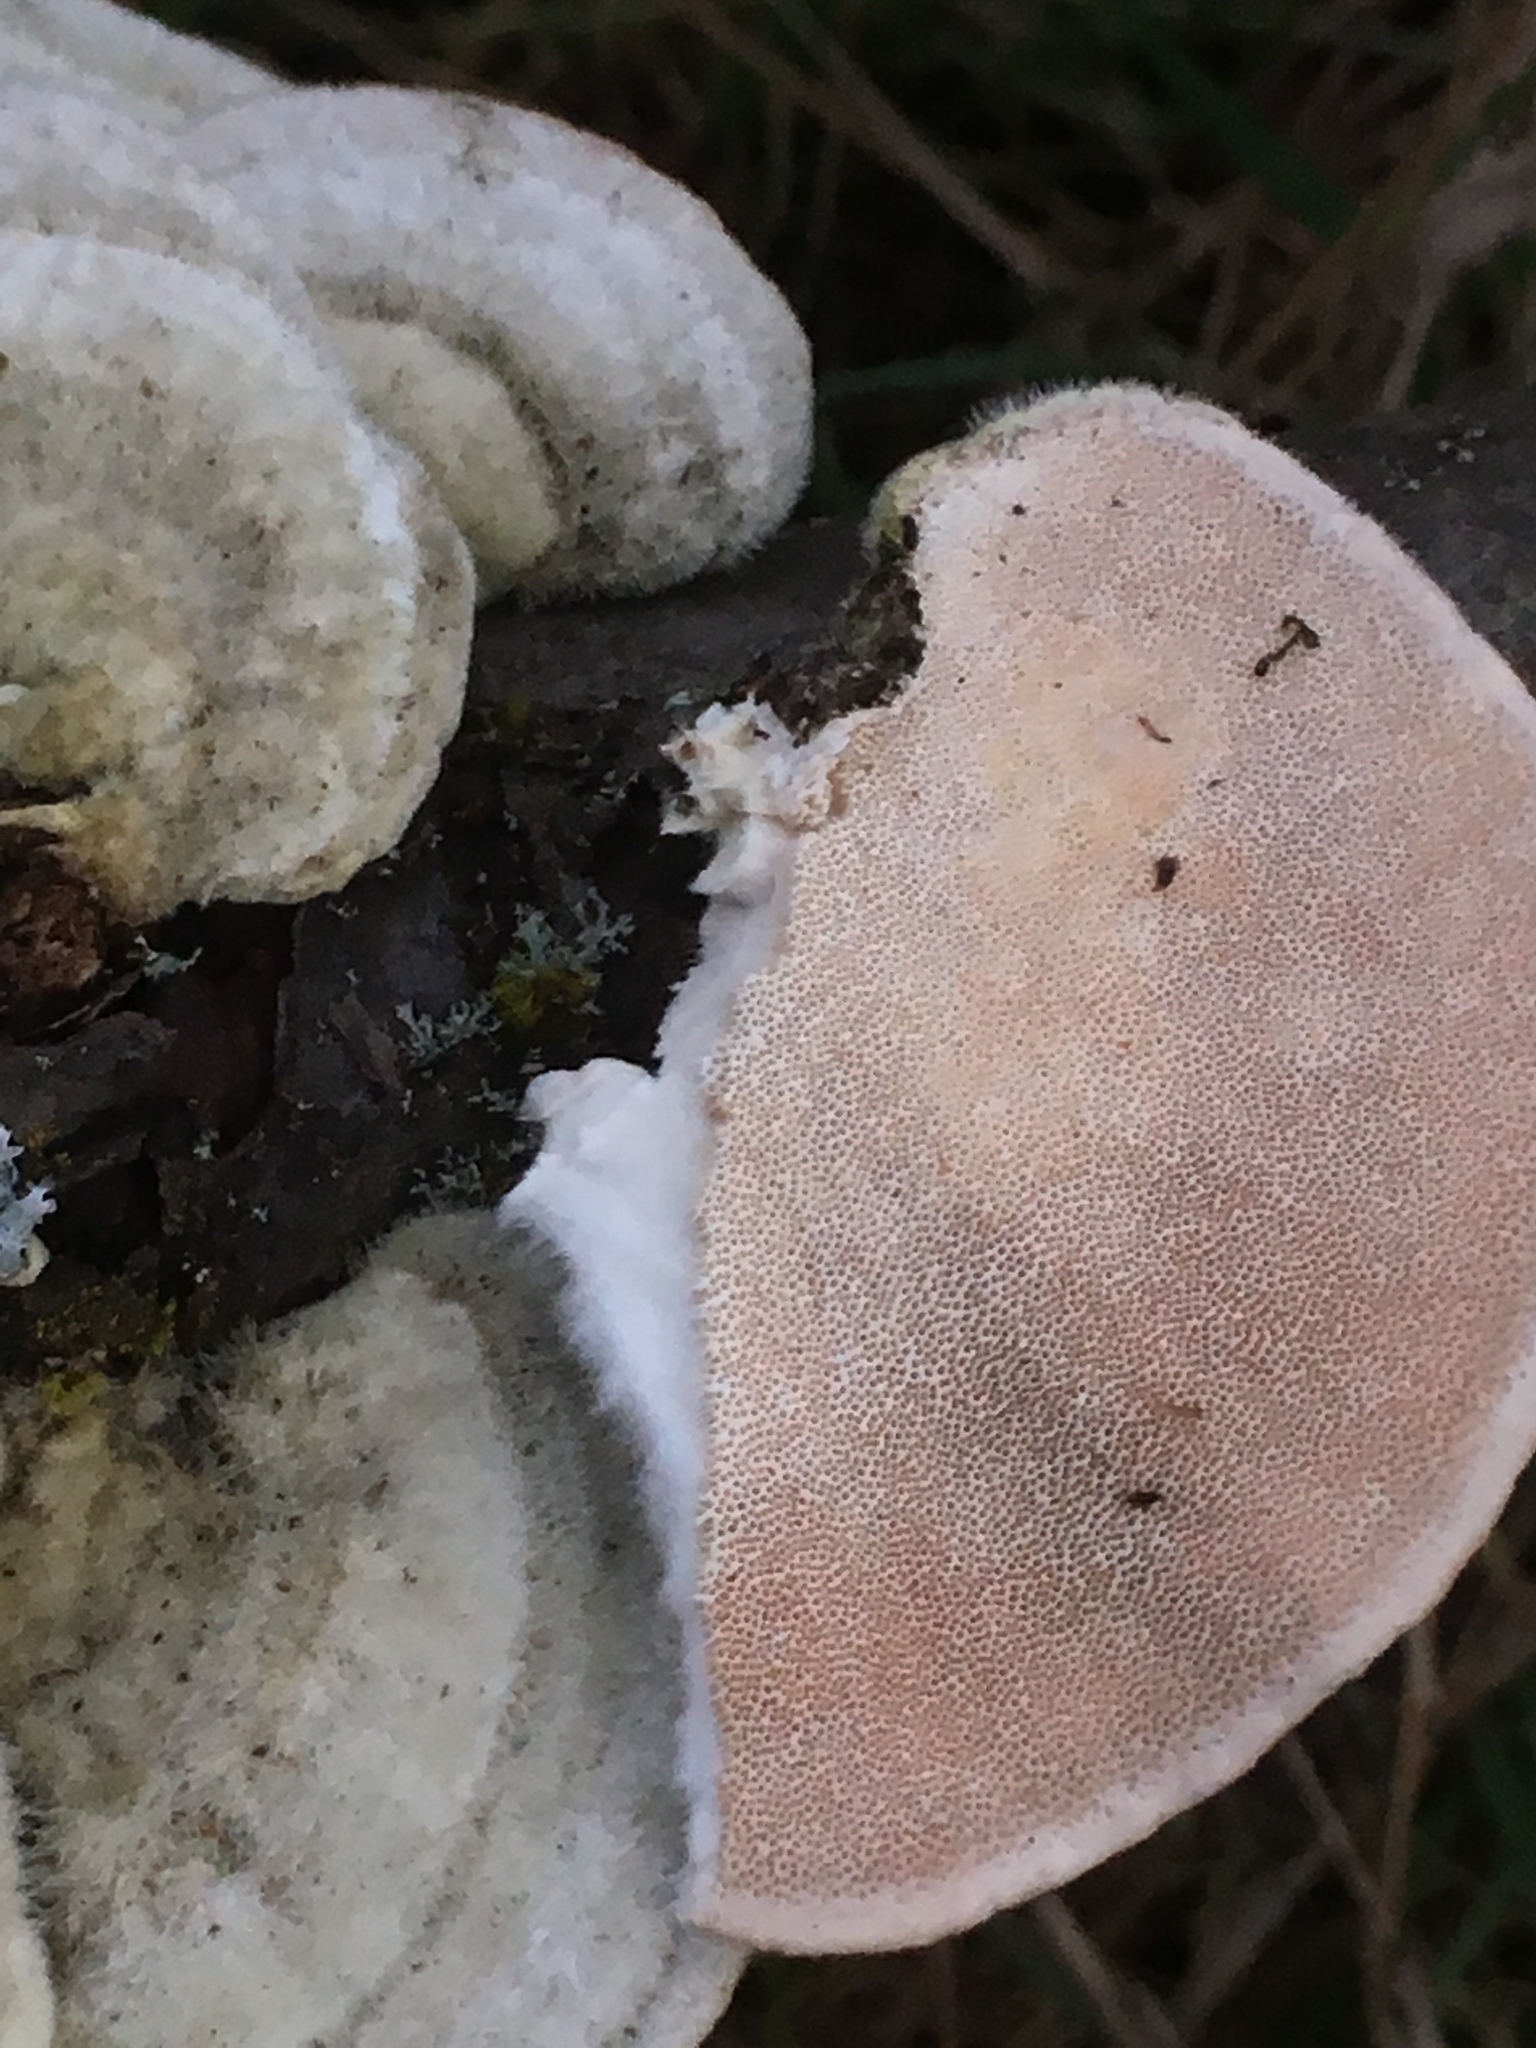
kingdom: Fungi
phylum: Basidiomycota
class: Agaricomycetes
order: Polyporales
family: Polyporaceae
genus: Trametes
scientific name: Trametes hirsuta
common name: Hairy bracket
